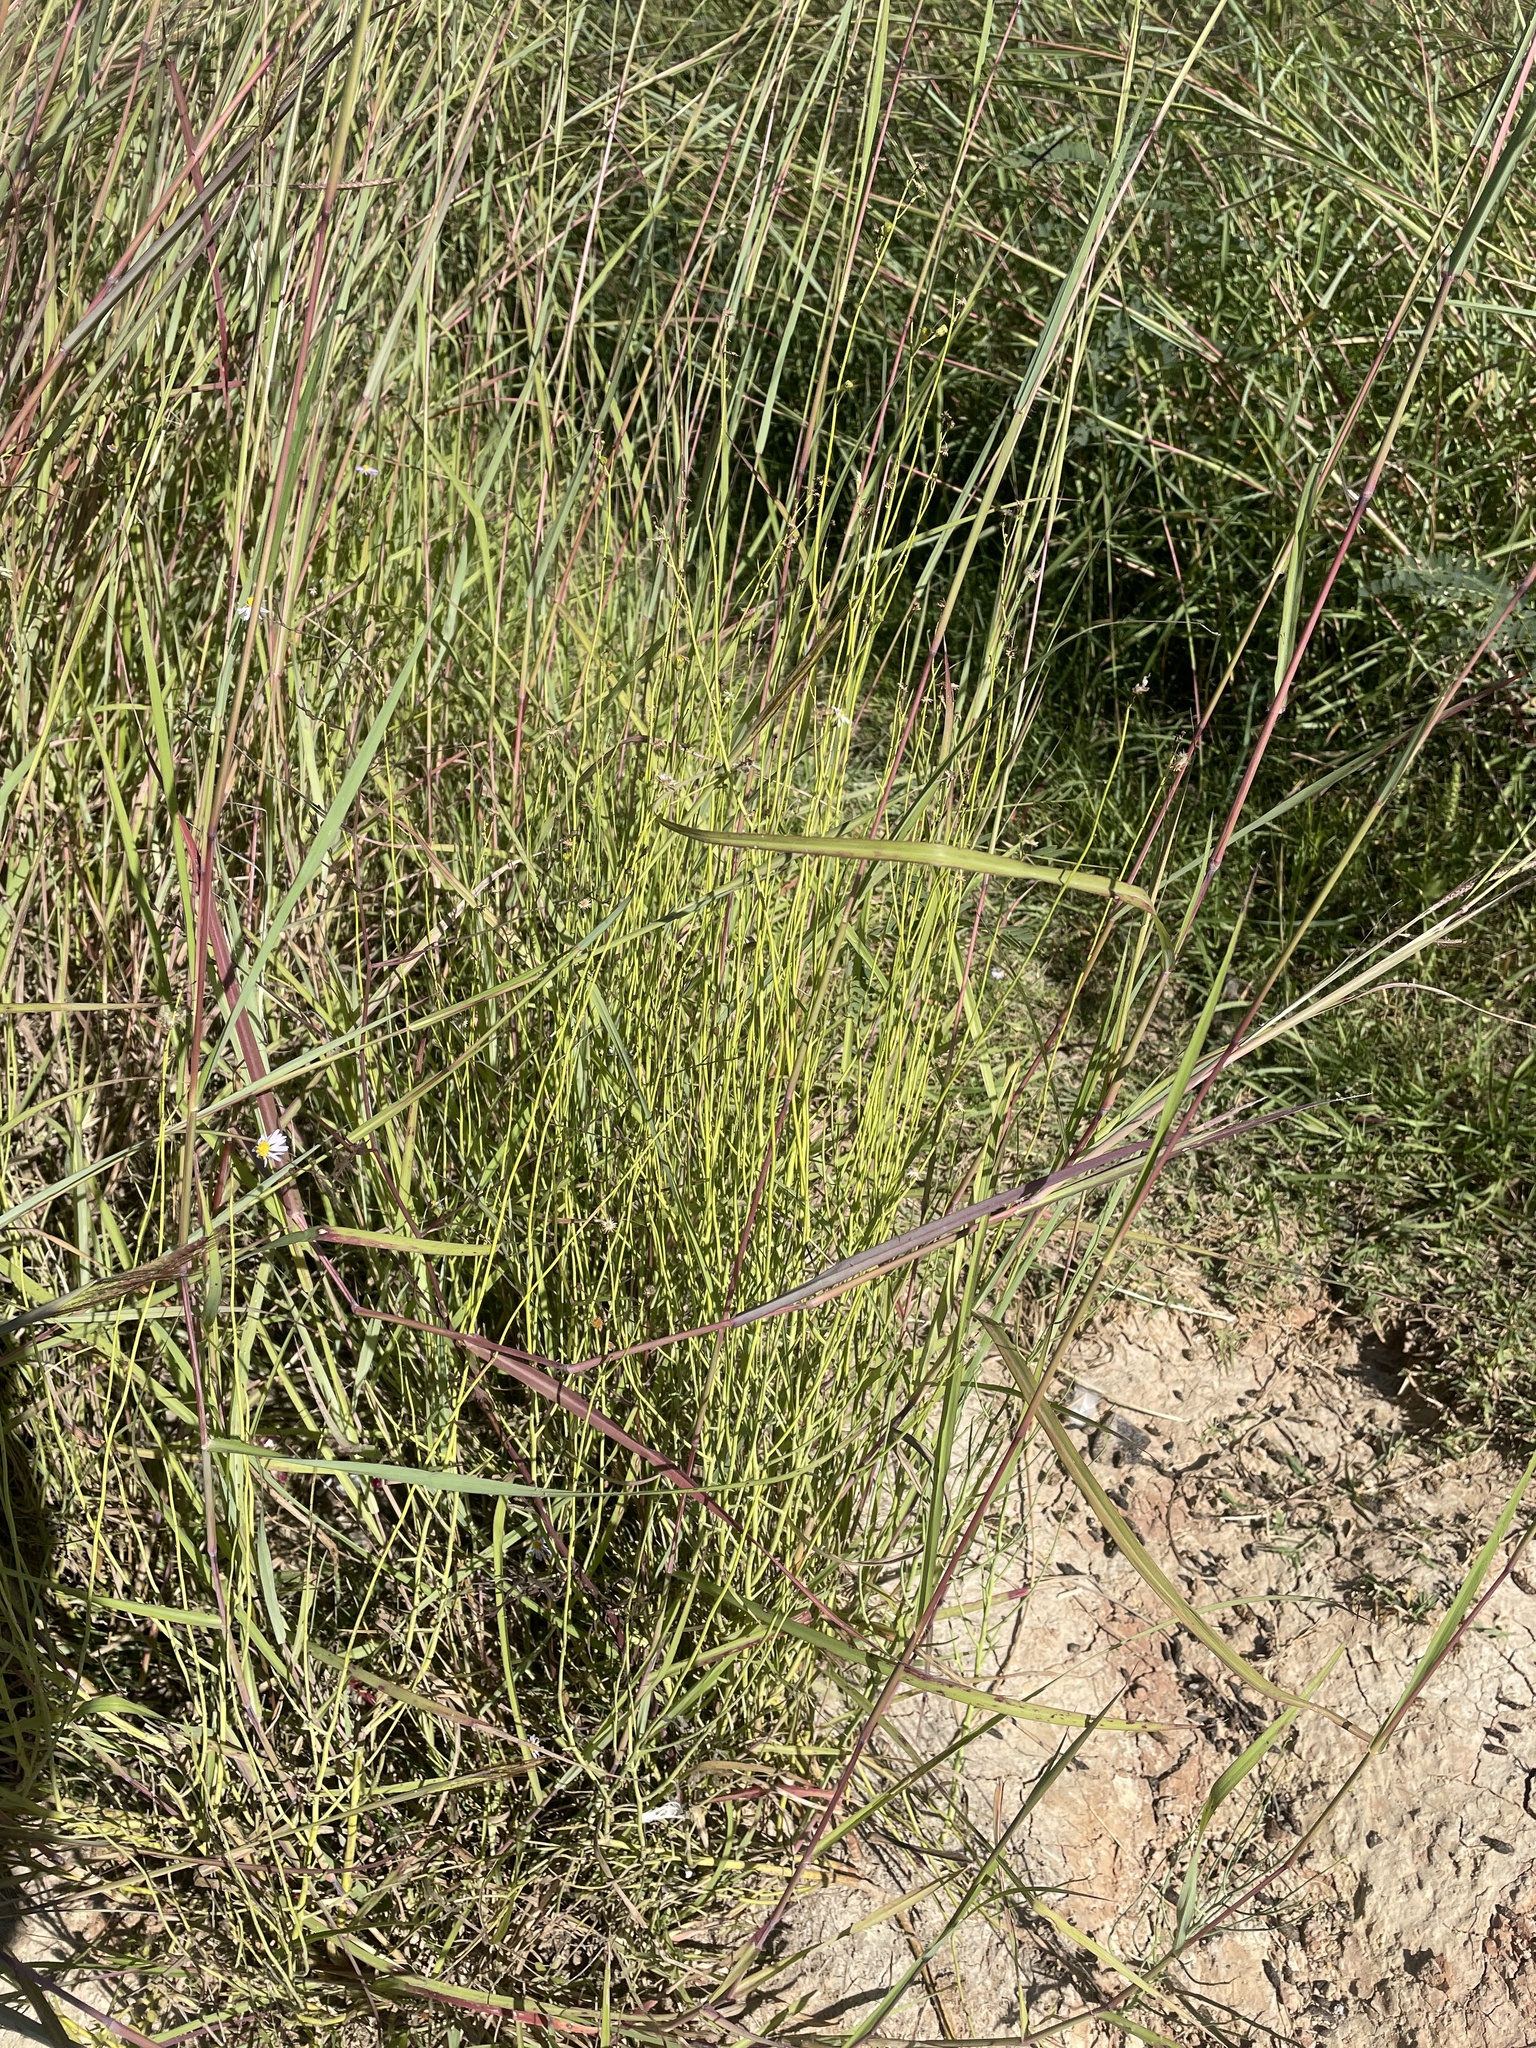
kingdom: Plantae
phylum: Tracheophyta
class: Magnoliopsida
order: Asterales
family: Asteraceae
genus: Chloracantha
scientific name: Chloracantha spinosa
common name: Mexican devilweed
